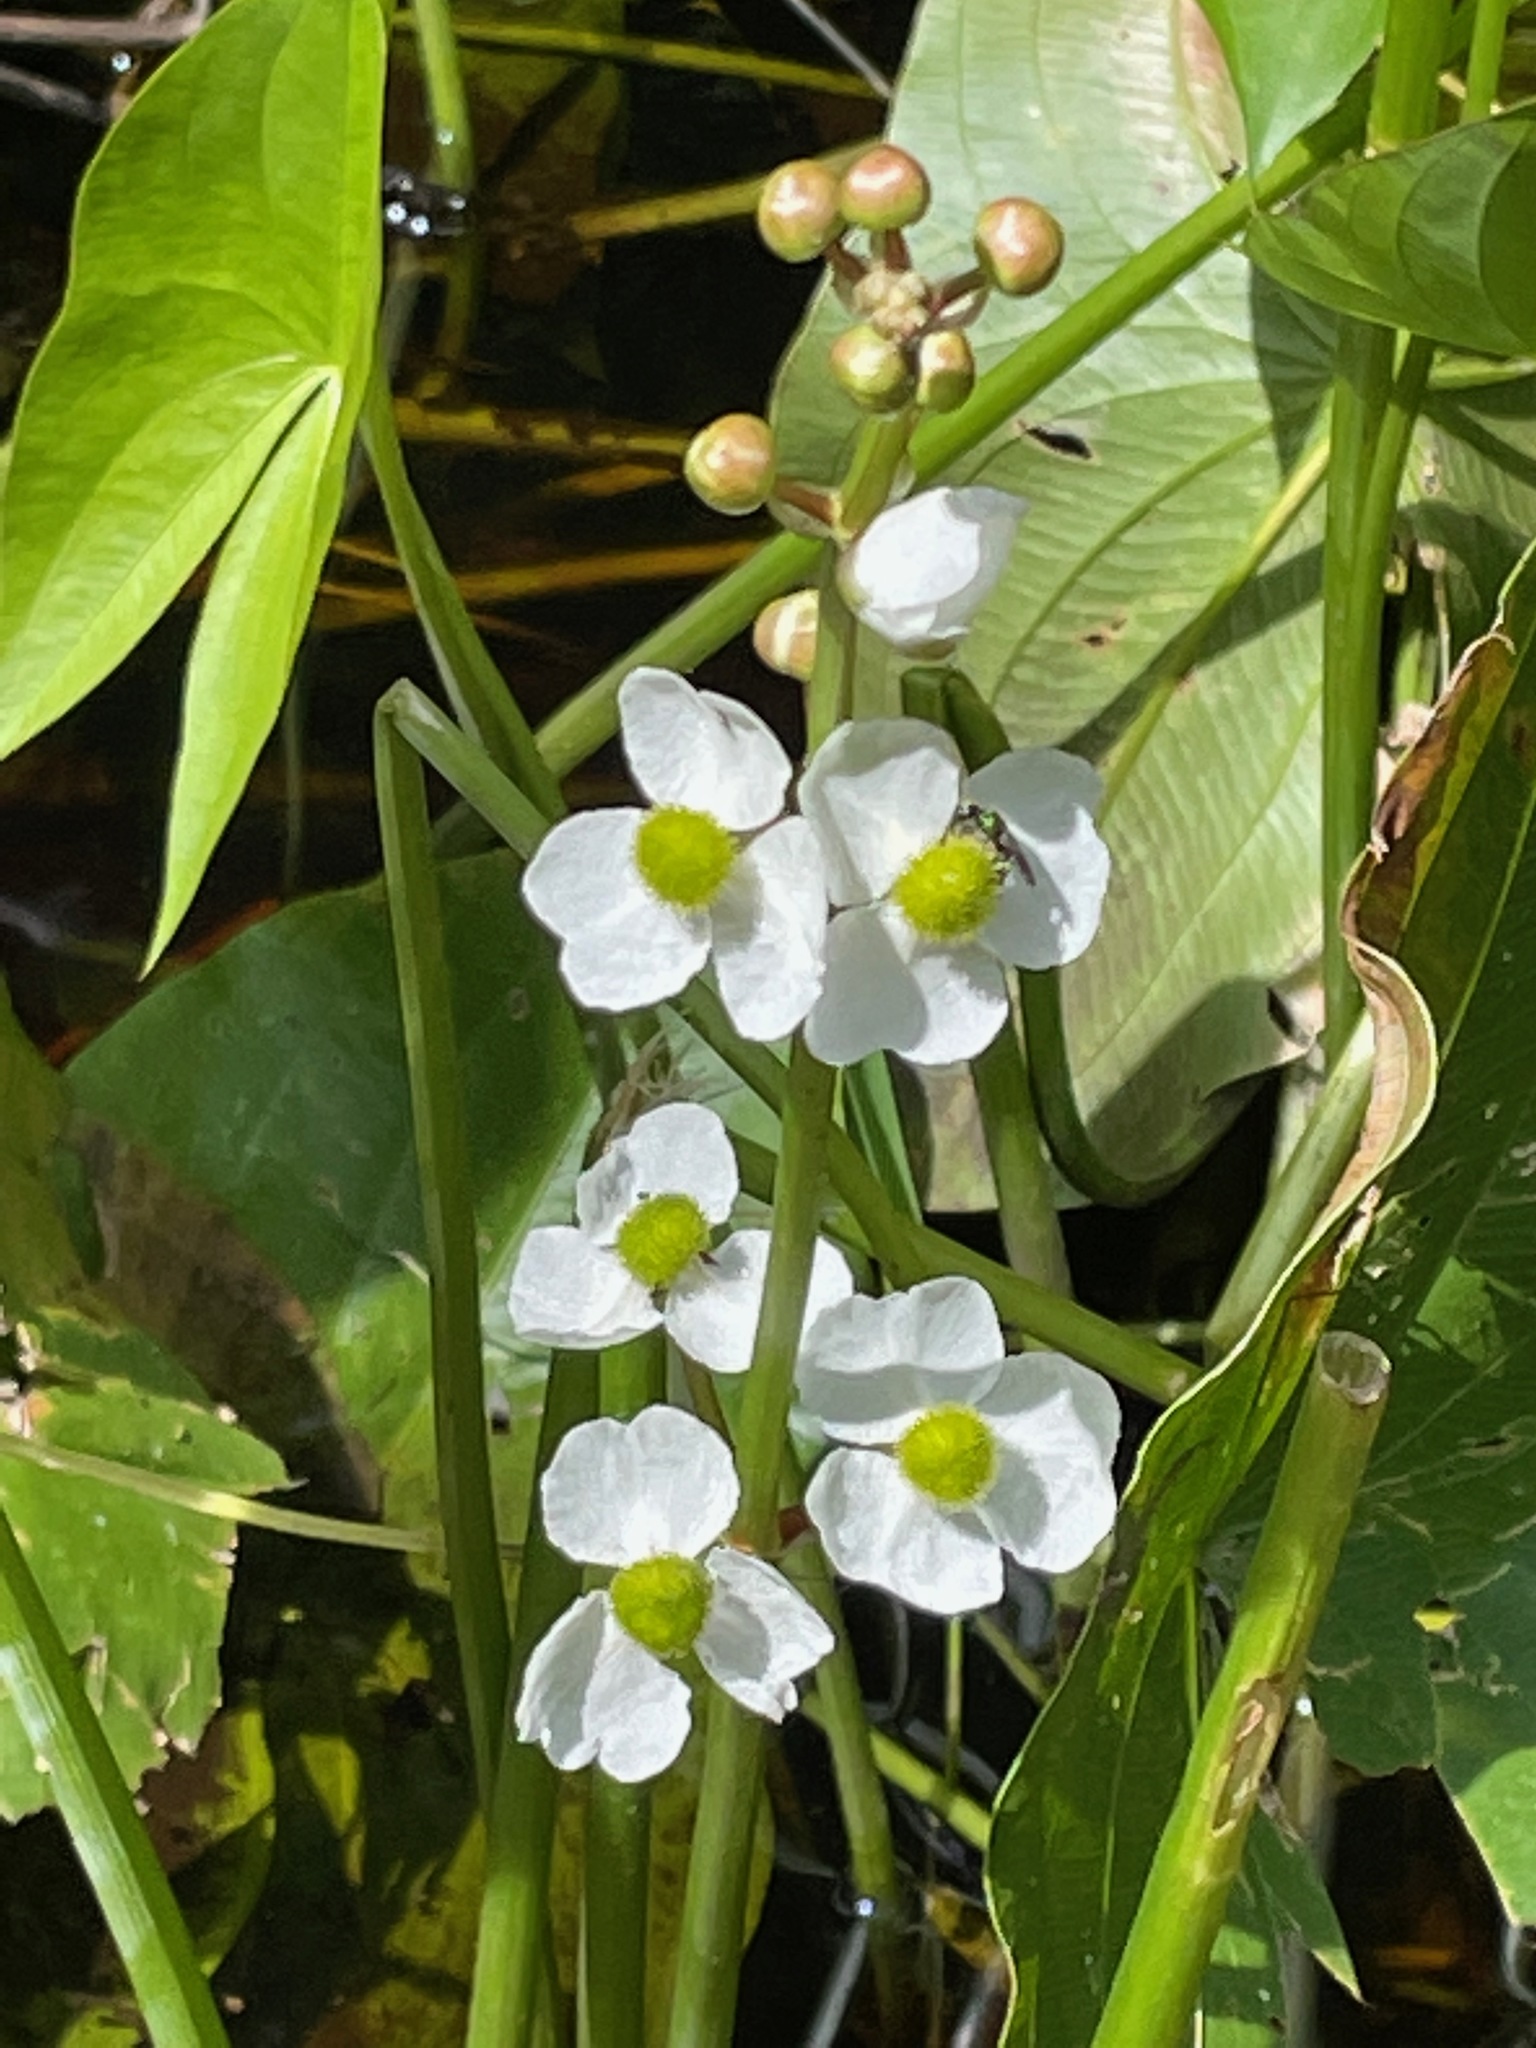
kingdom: Plantae
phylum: Tracheophyta
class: Liliopsida
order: Alismatales
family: Alismataceae
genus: Sagittaria
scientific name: Sagittaria latifolia
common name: Duck-potato
